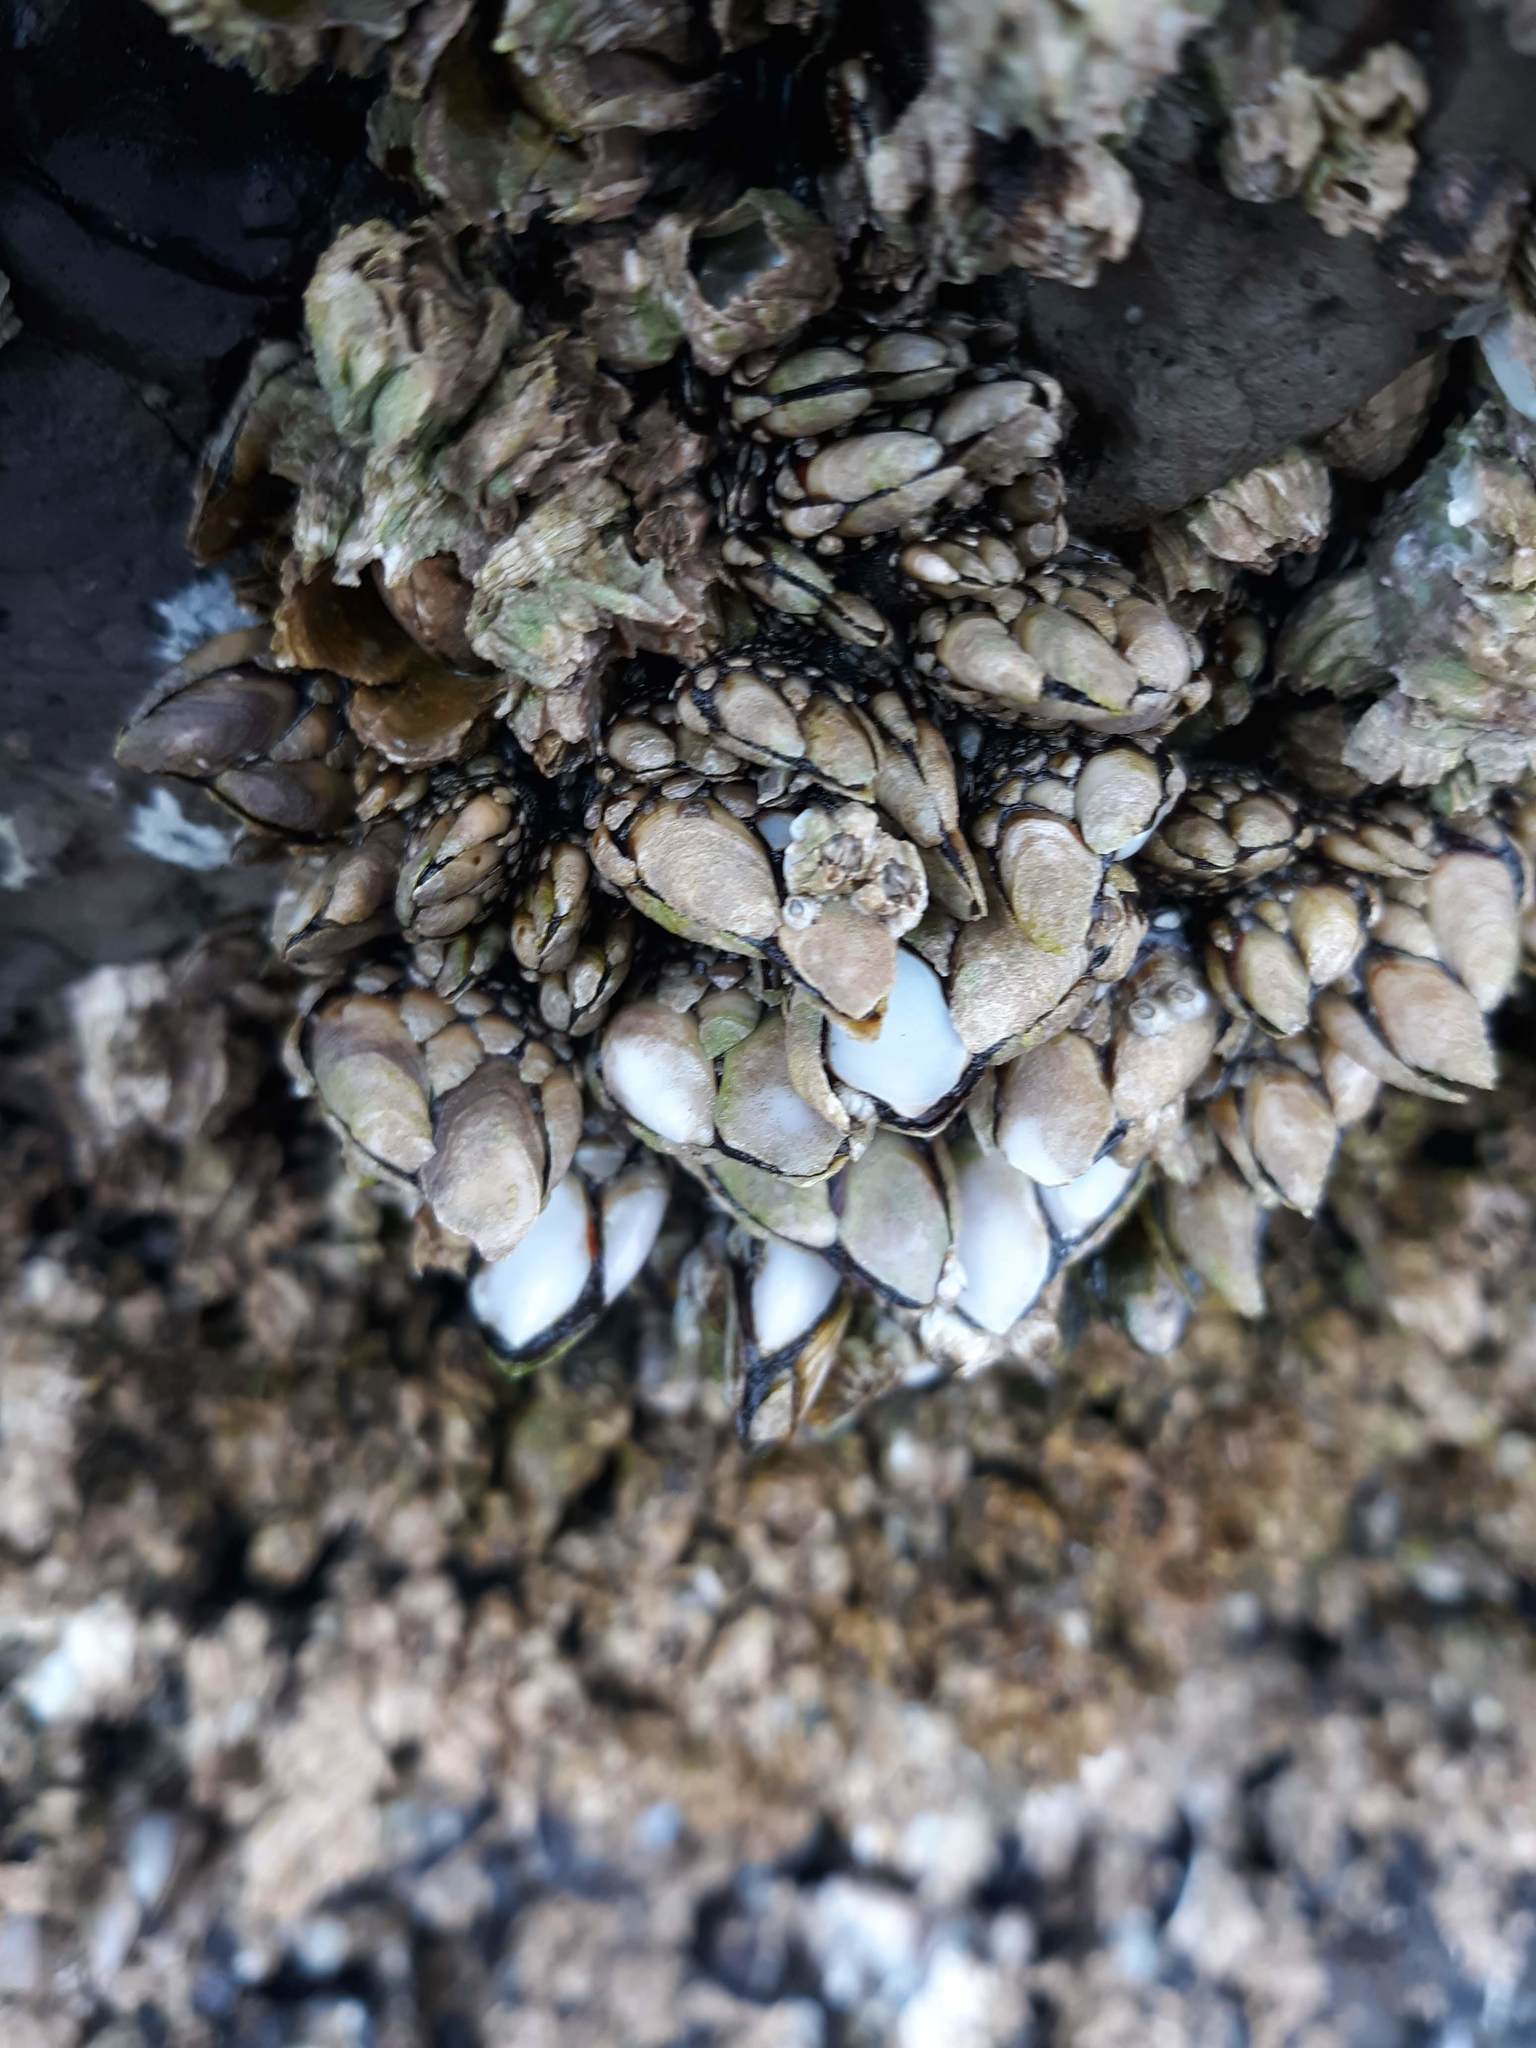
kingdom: Animalia
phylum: Arthropoda
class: Maxillopoda
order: Pedunculata
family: Pollicipedidae
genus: Pollicipes
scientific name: Pollicipes polymerus
